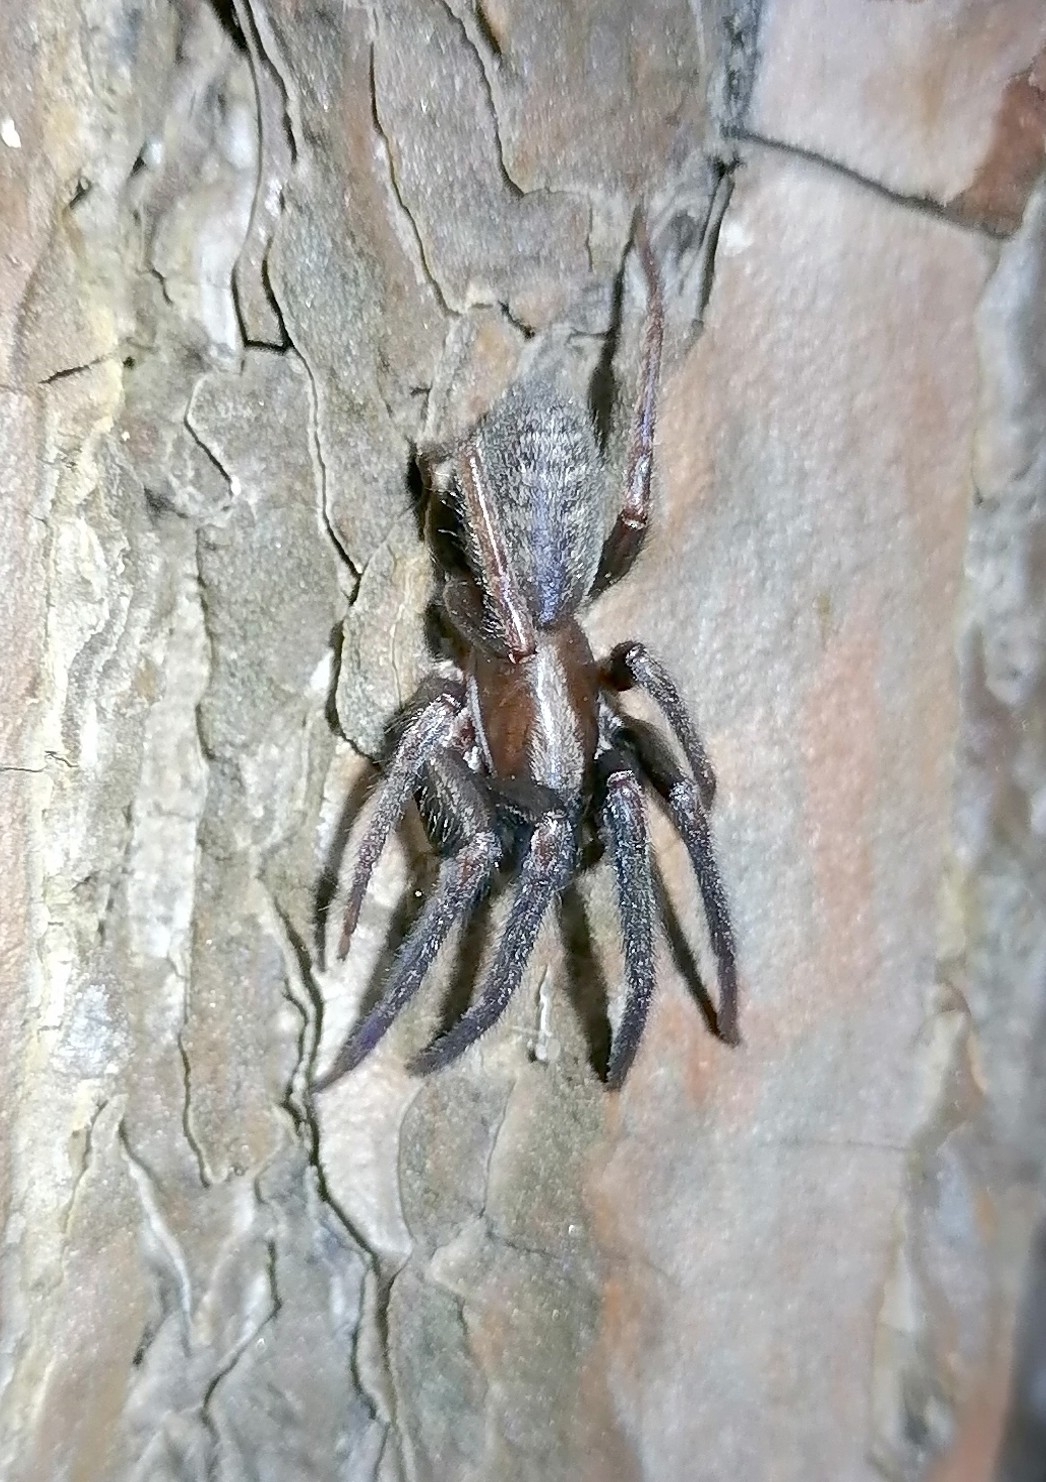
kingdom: Animalia
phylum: Arthropoda
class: Arachnida
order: Araneae
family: Segestriidae
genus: Segestria
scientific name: Segestria florentina
